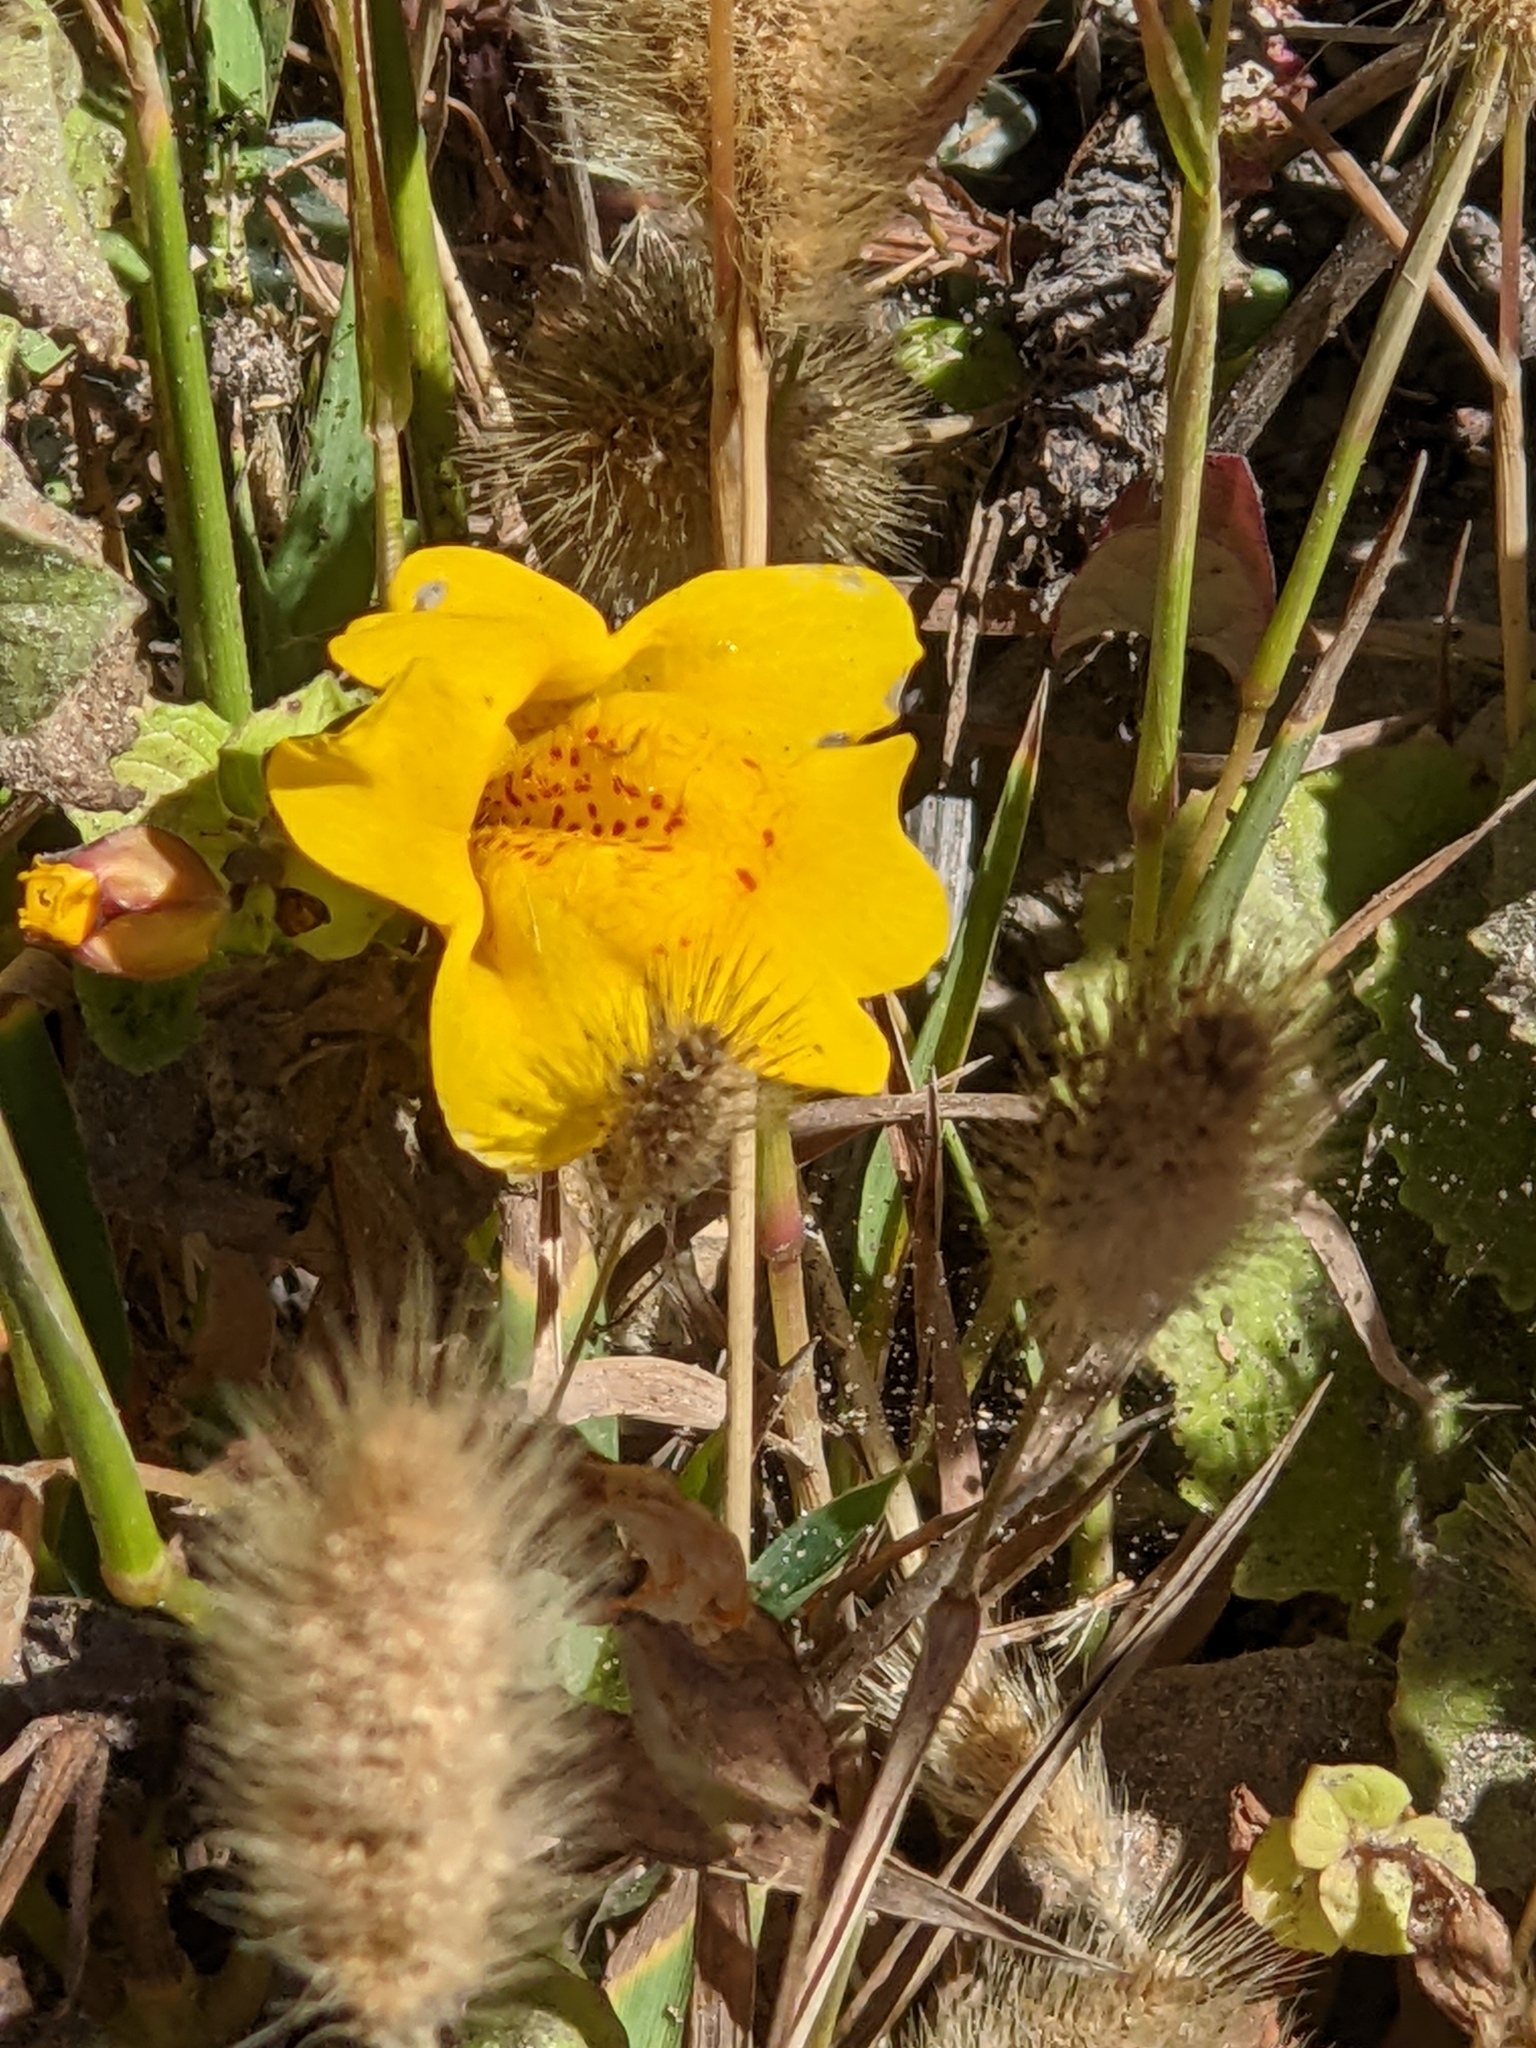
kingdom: Plantae
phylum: Tracheophyta
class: Magnoliopsida
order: Lamiales
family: Phrymaceae
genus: Erythranthe
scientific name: Erythranthe grandis
